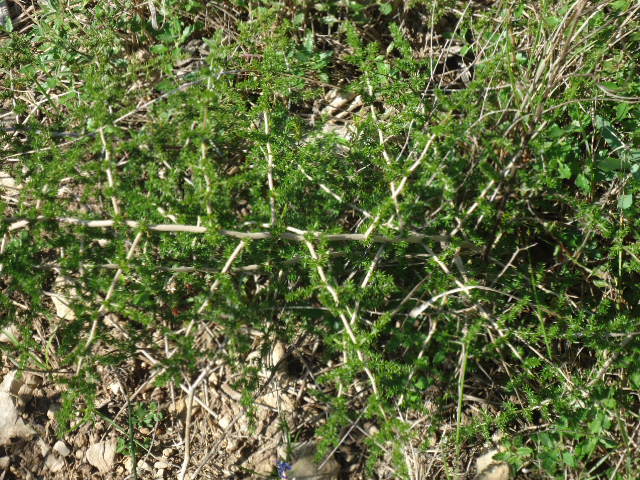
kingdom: Plantae
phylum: Tracheophyta
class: Liliopsida
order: Asparagales
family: Asparagaceae
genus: Asparagus
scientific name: Asparagus acutifolius
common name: Wild asparagus
